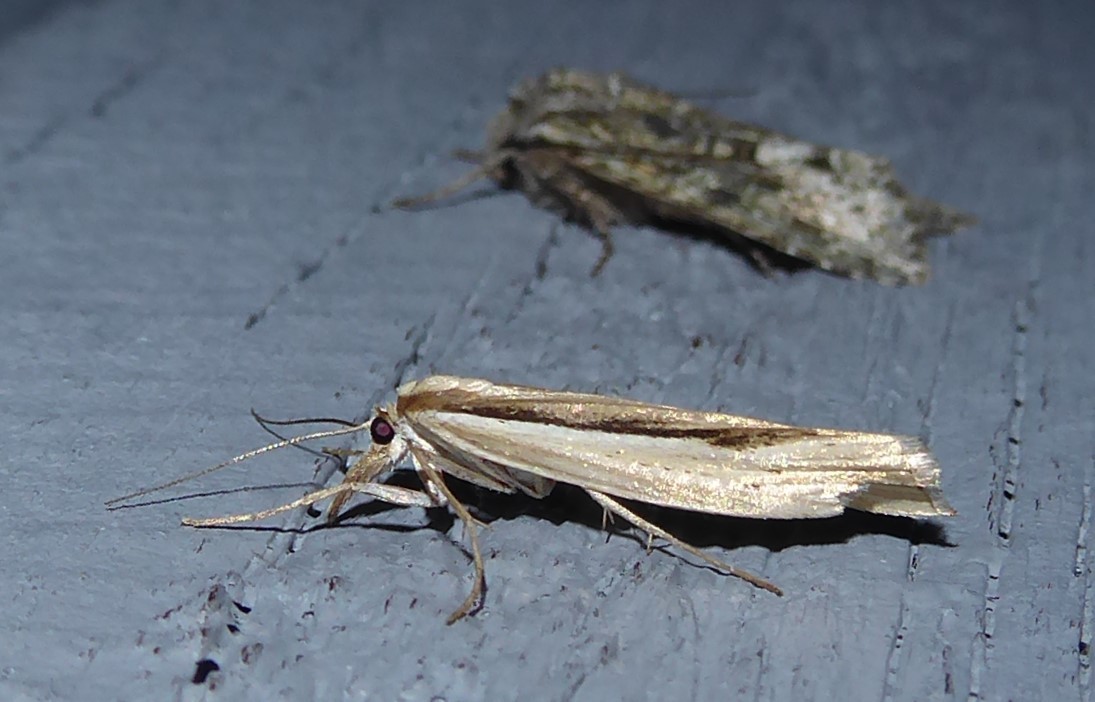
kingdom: Animalia
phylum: Arthropoda
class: Insecta
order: Lepidoptera
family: Crambidae
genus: Orocrambus
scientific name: Orocrambus ramosellus
